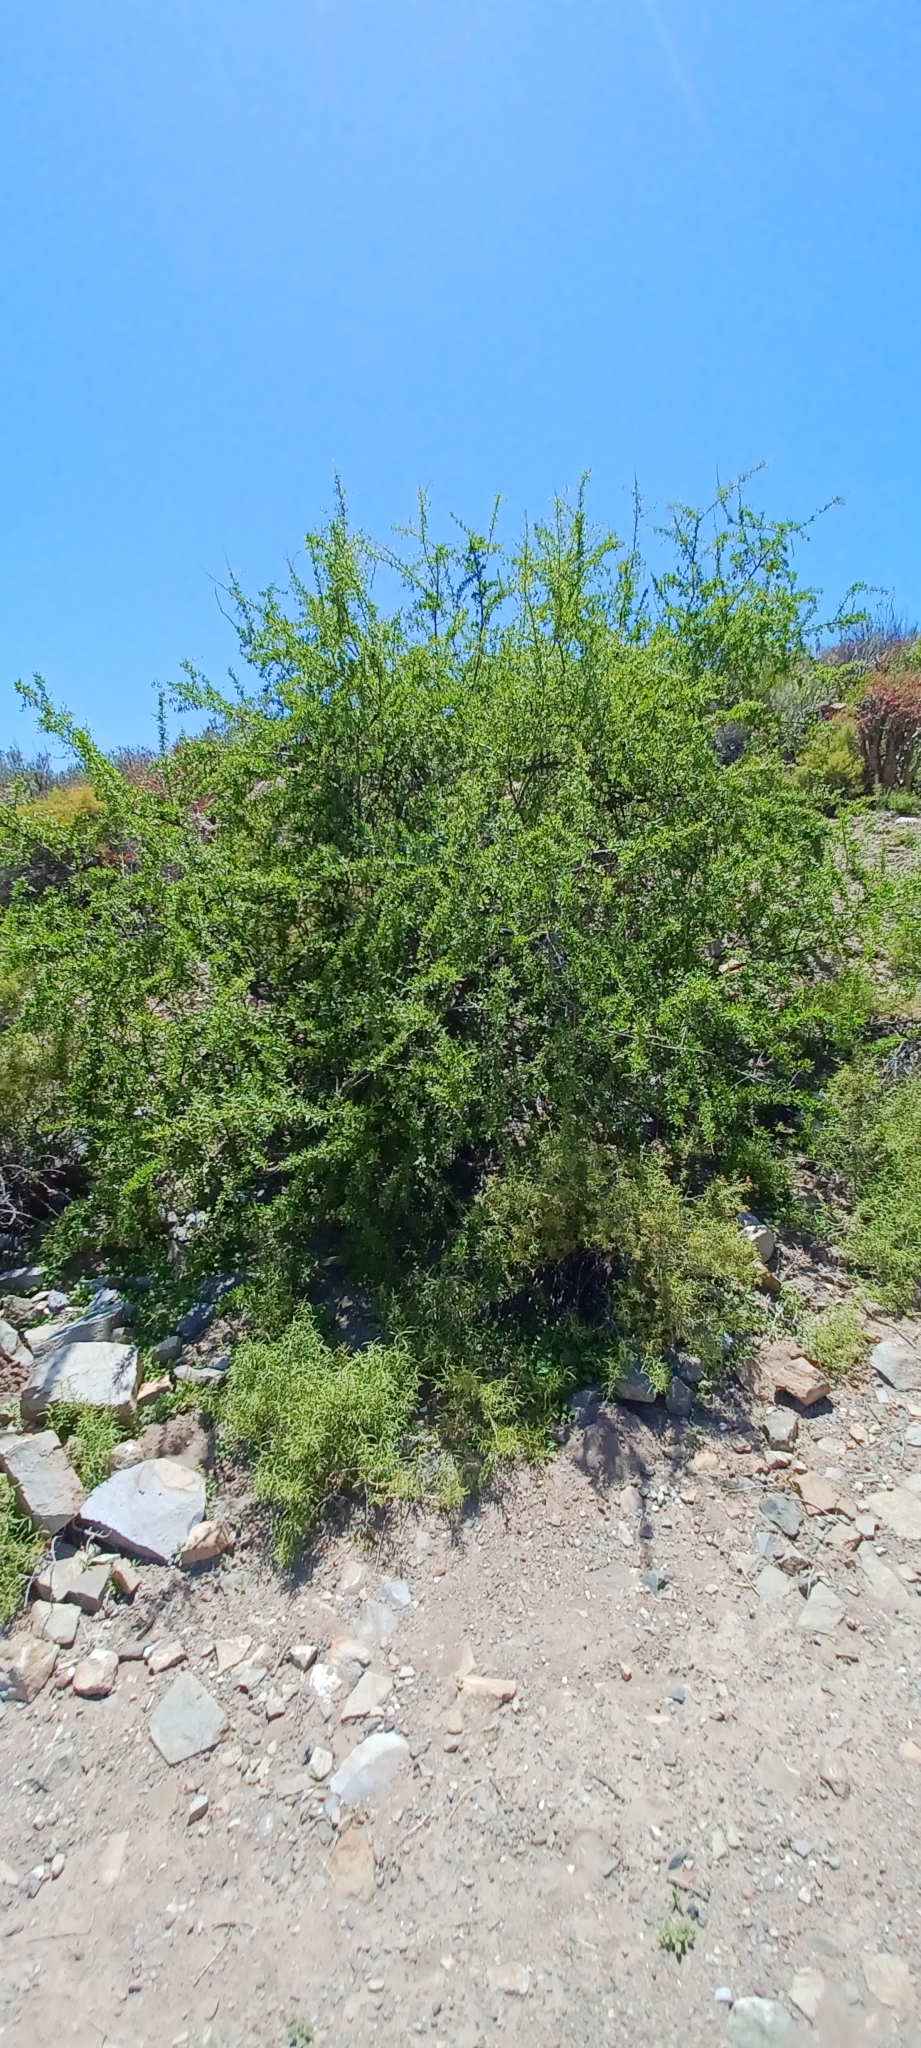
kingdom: Plantae
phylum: Tracheophyta
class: Magnoliopsida
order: Solanales
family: Solanaceae
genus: Lycium
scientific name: Lycium oxycarpum
